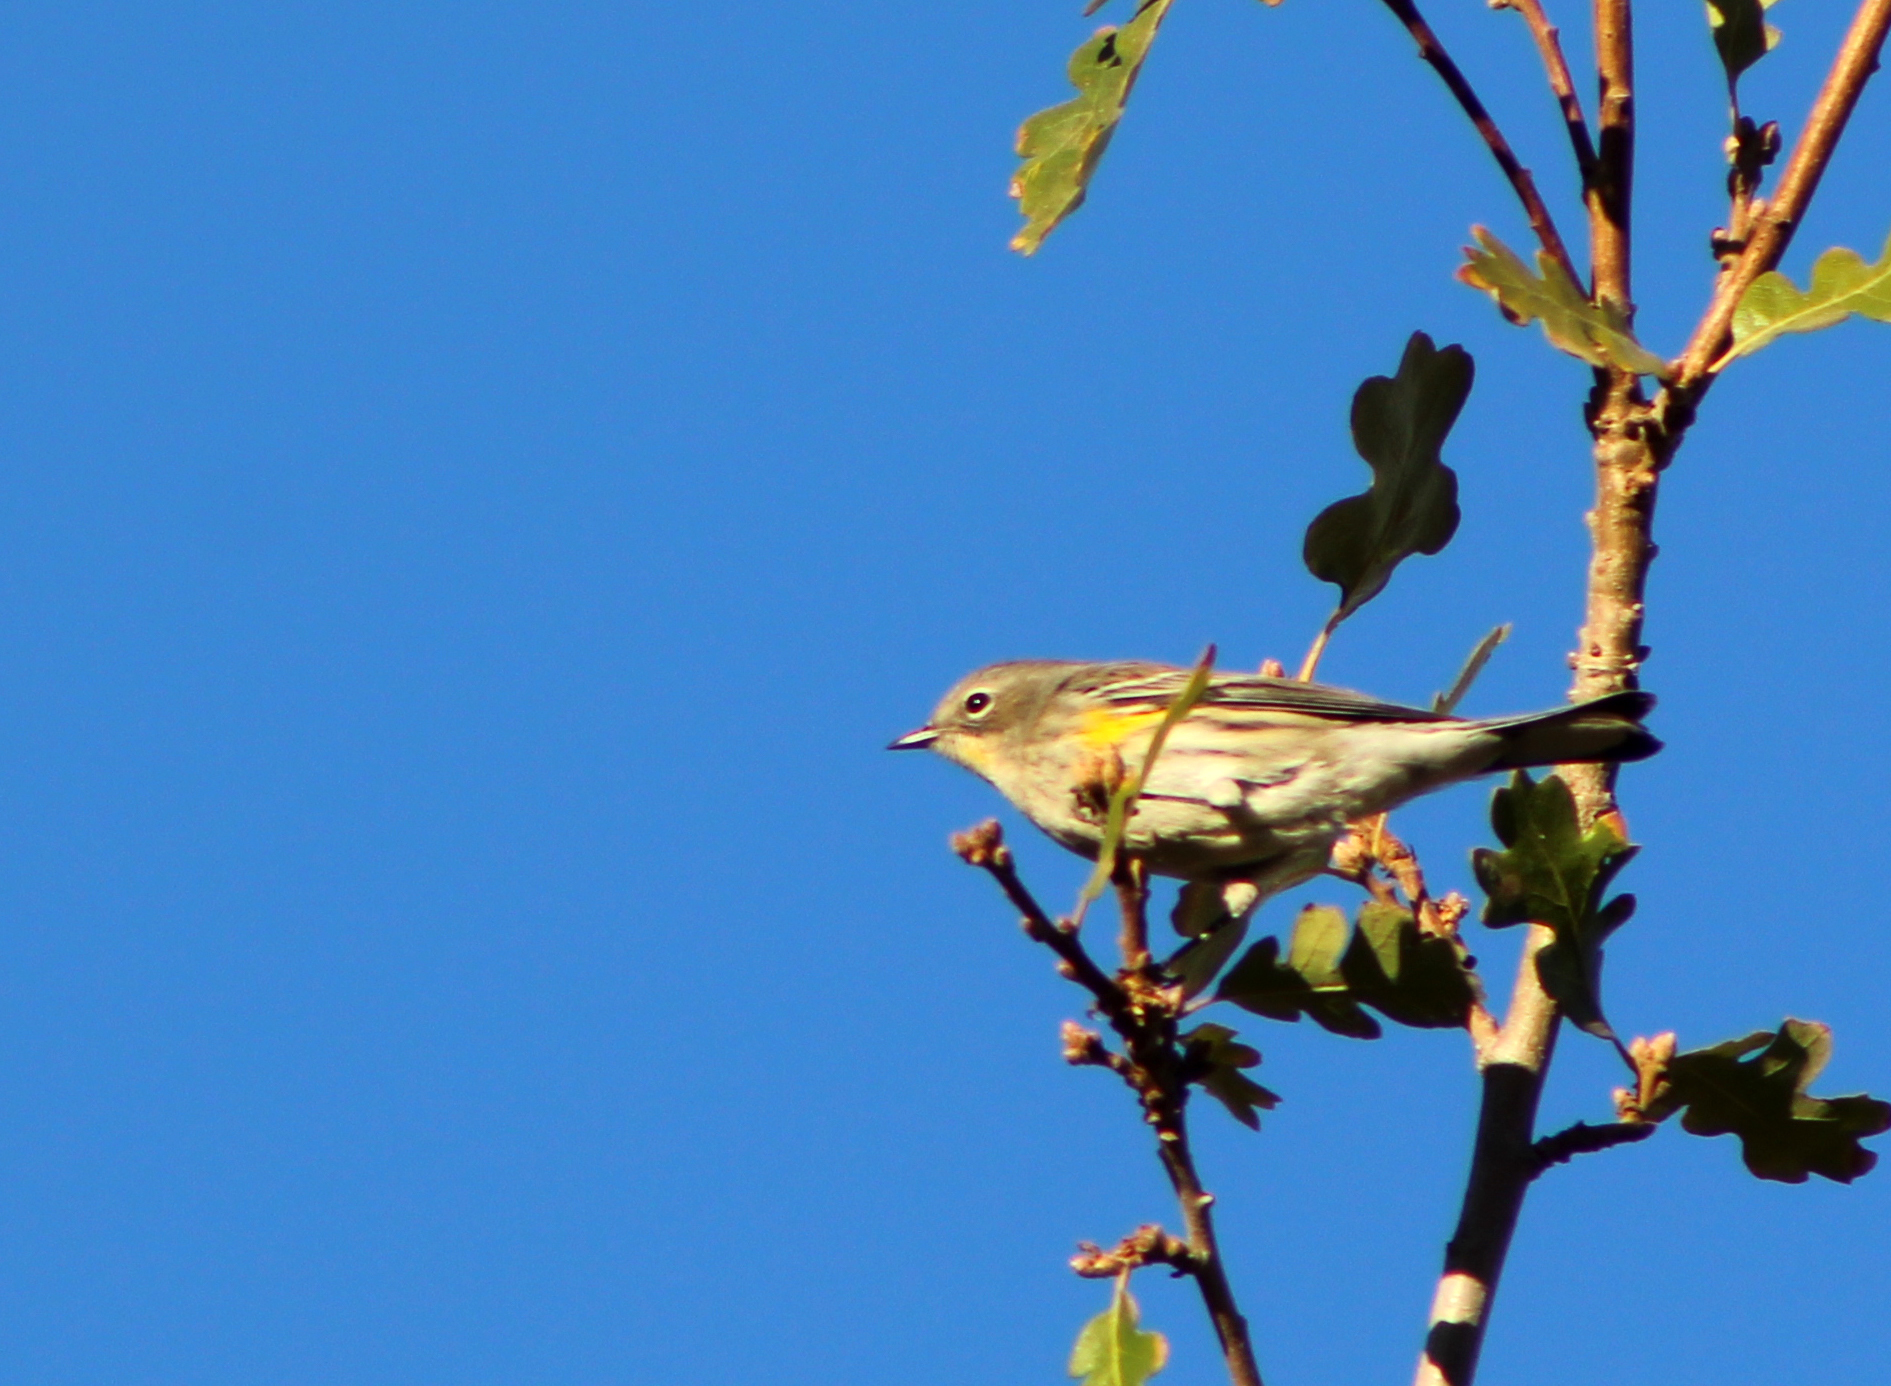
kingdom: Animalia
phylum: Chordata
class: Aves
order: Passeriformes
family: Parulidae
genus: Setophaga
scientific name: Setophaga coronata
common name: Myrtle warbler
